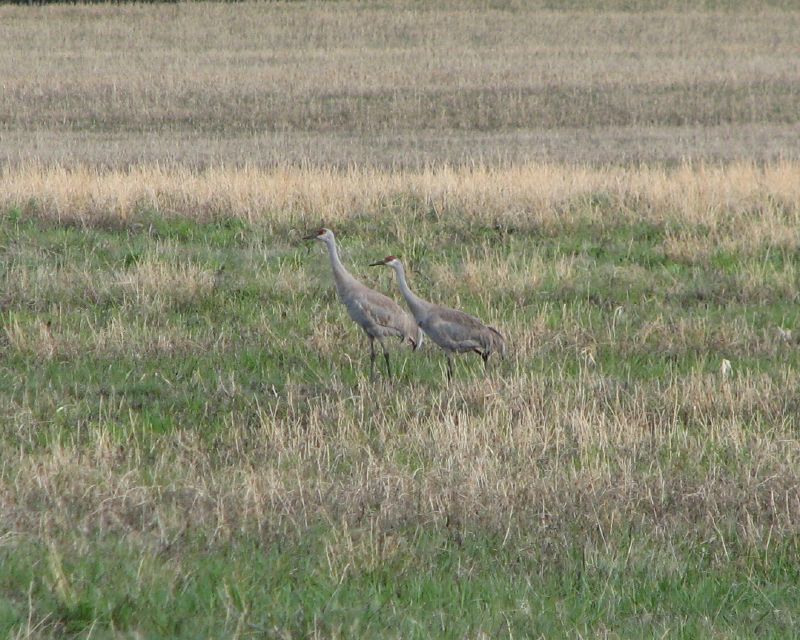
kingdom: Animalia
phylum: Chordata
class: Aves
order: Gruiformes
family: Gruidae
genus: Grus
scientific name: Grus canadensis
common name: Sandhill crane
